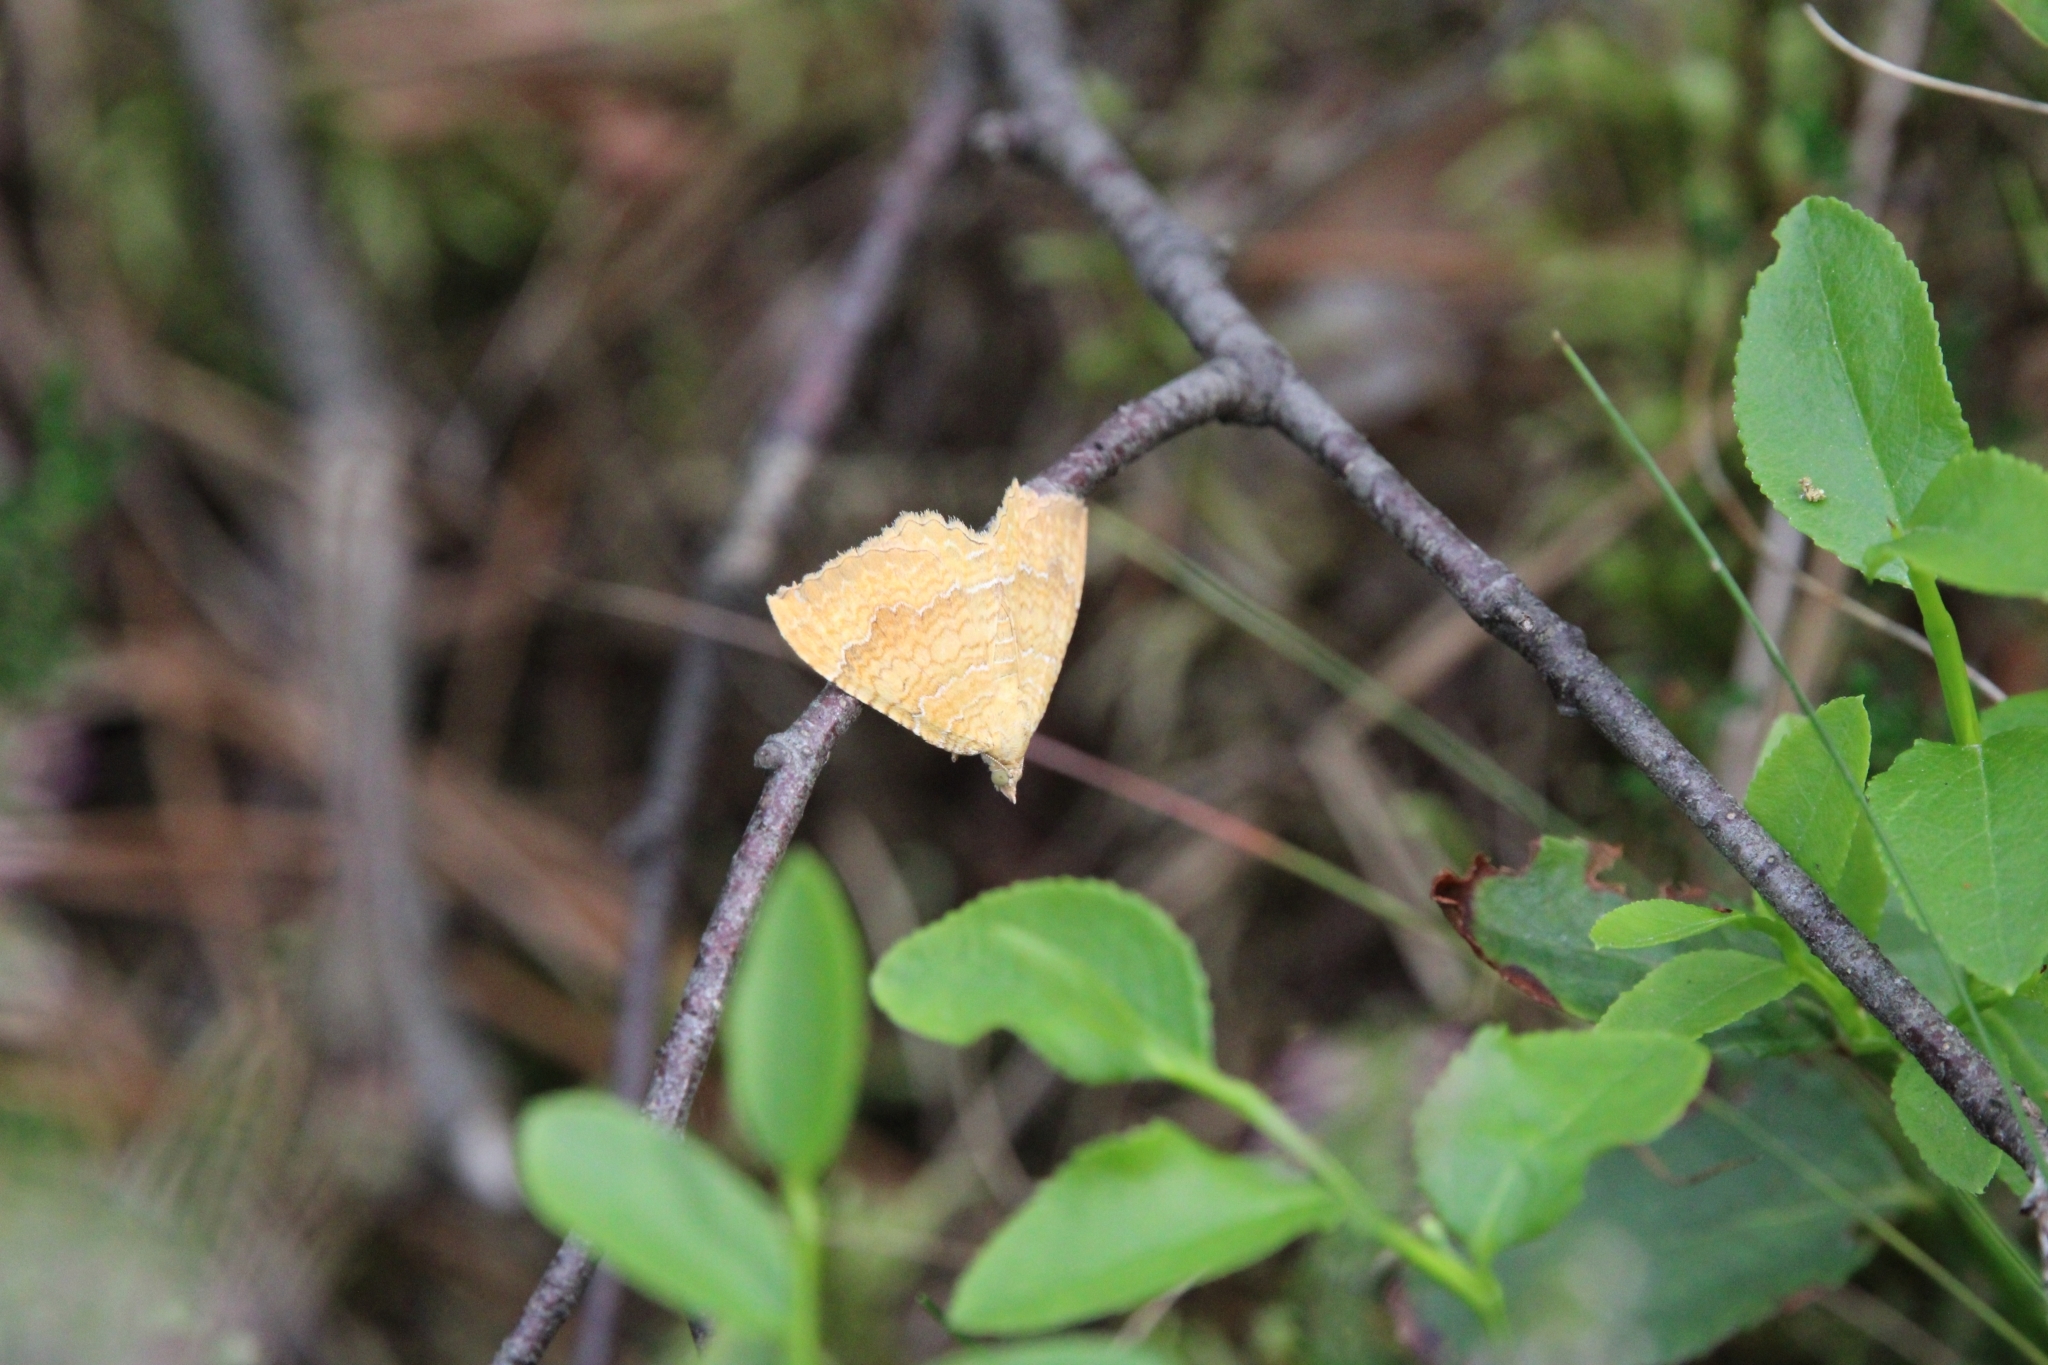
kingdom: Animalia
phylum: Arthropoda
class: Insecta
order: Lepidoptera
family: Geometridae
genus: Camptogramma
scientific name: Camptogramma bilineata
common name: Yellow shell
